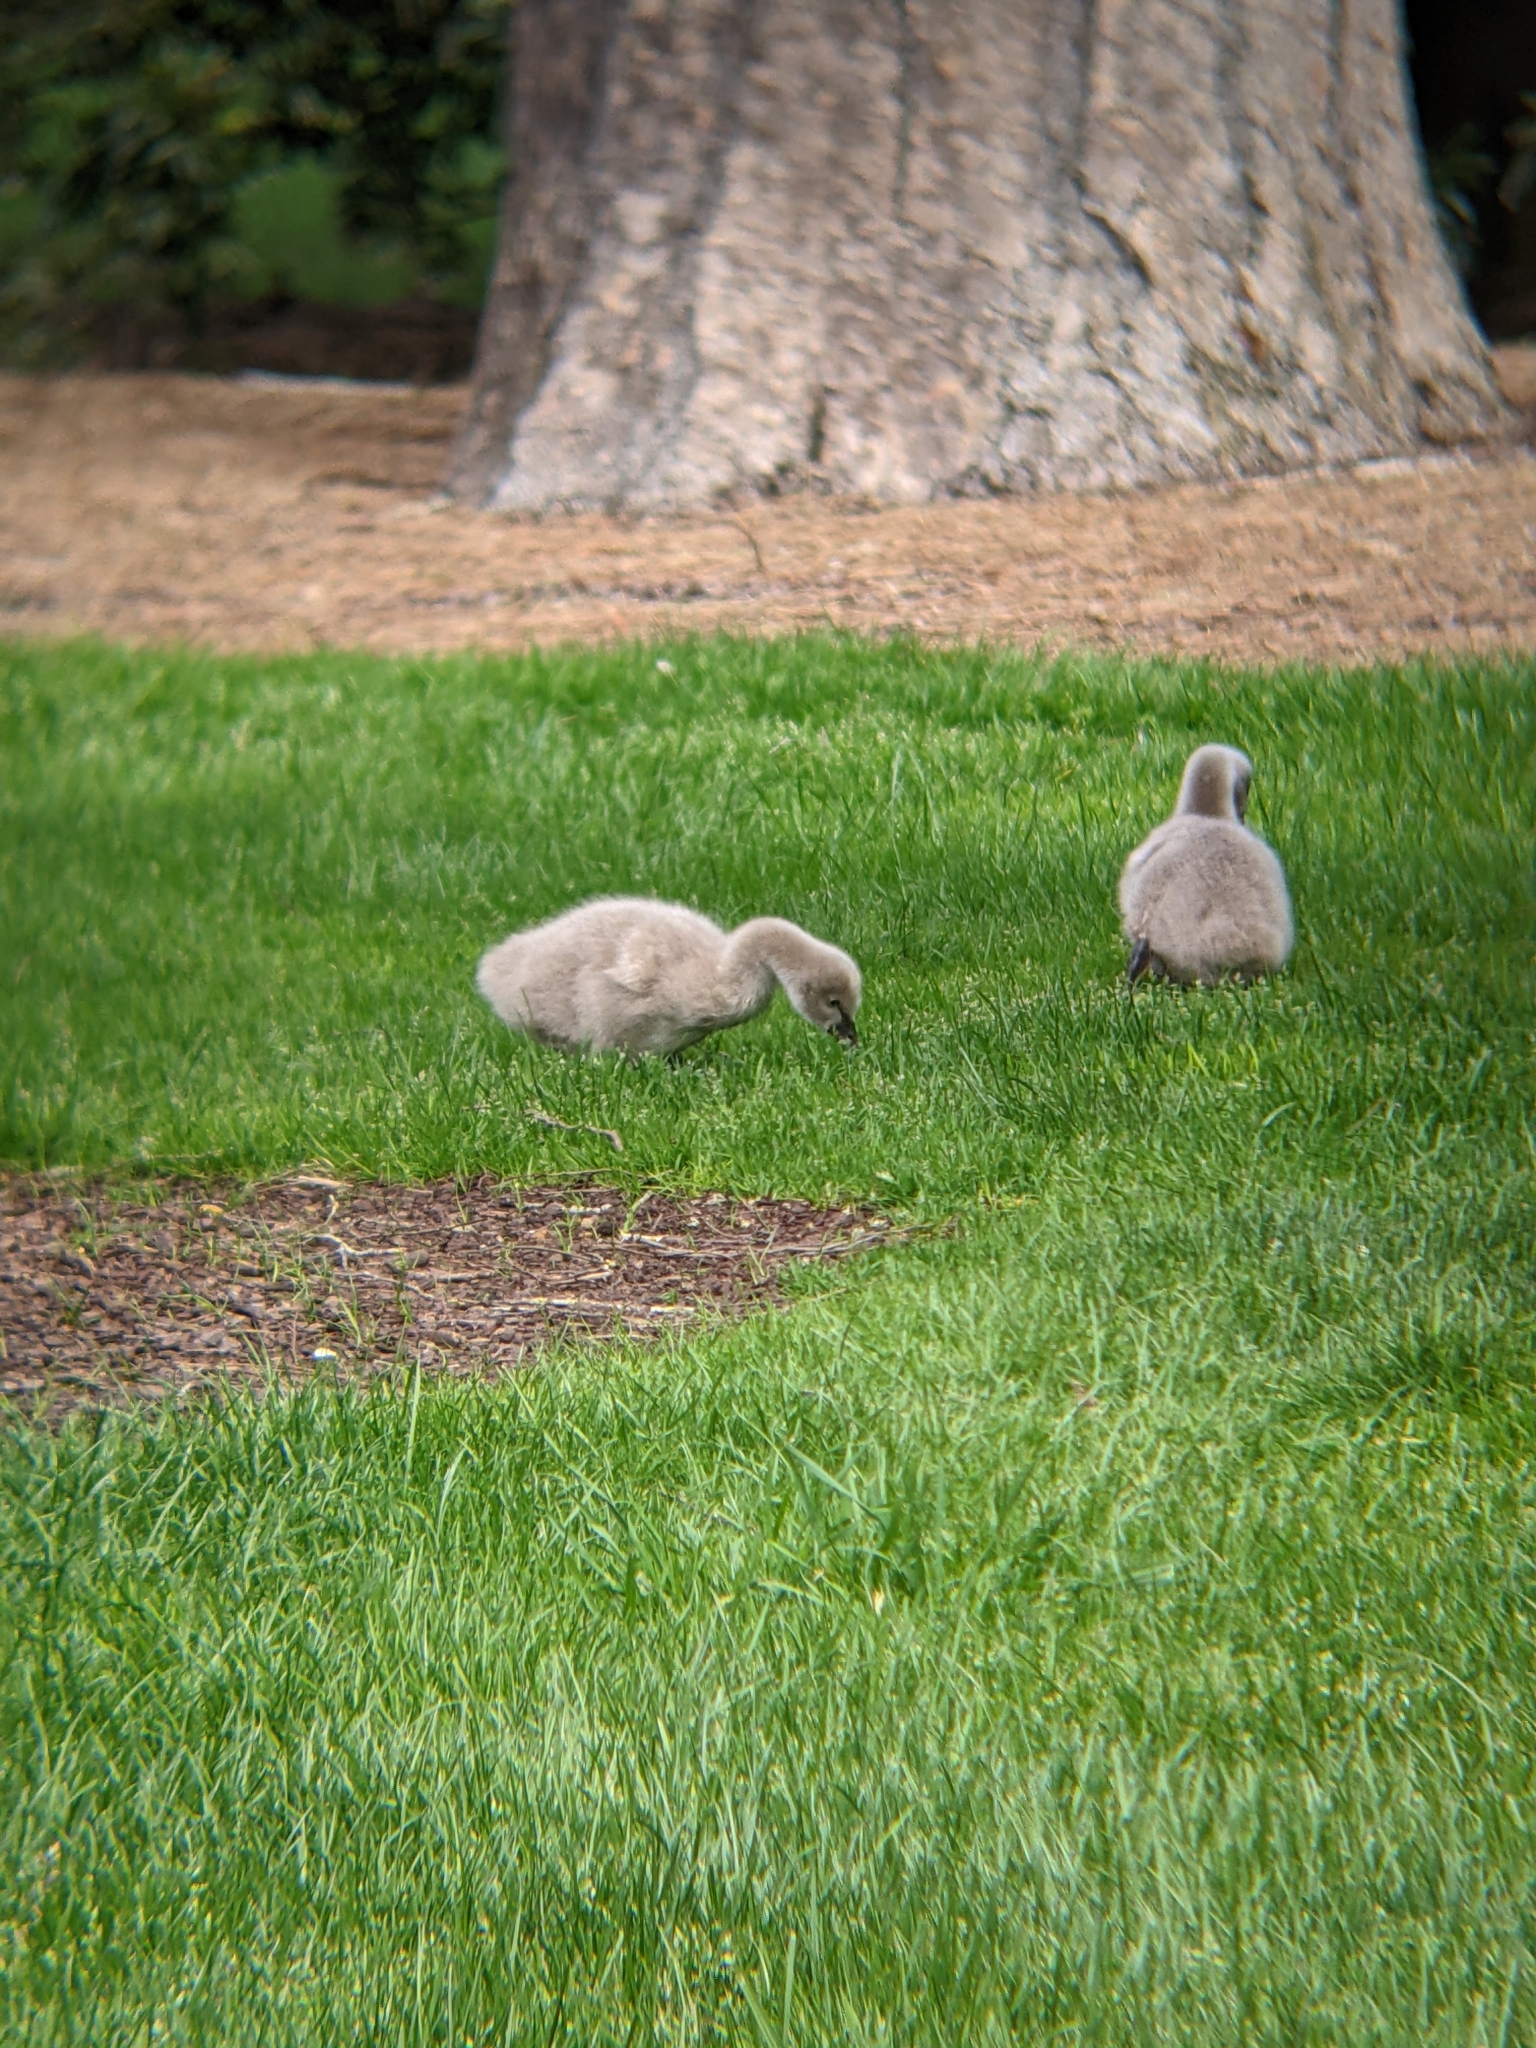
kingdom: Animalia
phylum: Chordata
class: Aves
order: Anseriformes
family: Anatidae
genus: Cygnus
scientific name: Cygnus atratus
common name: Black swan
